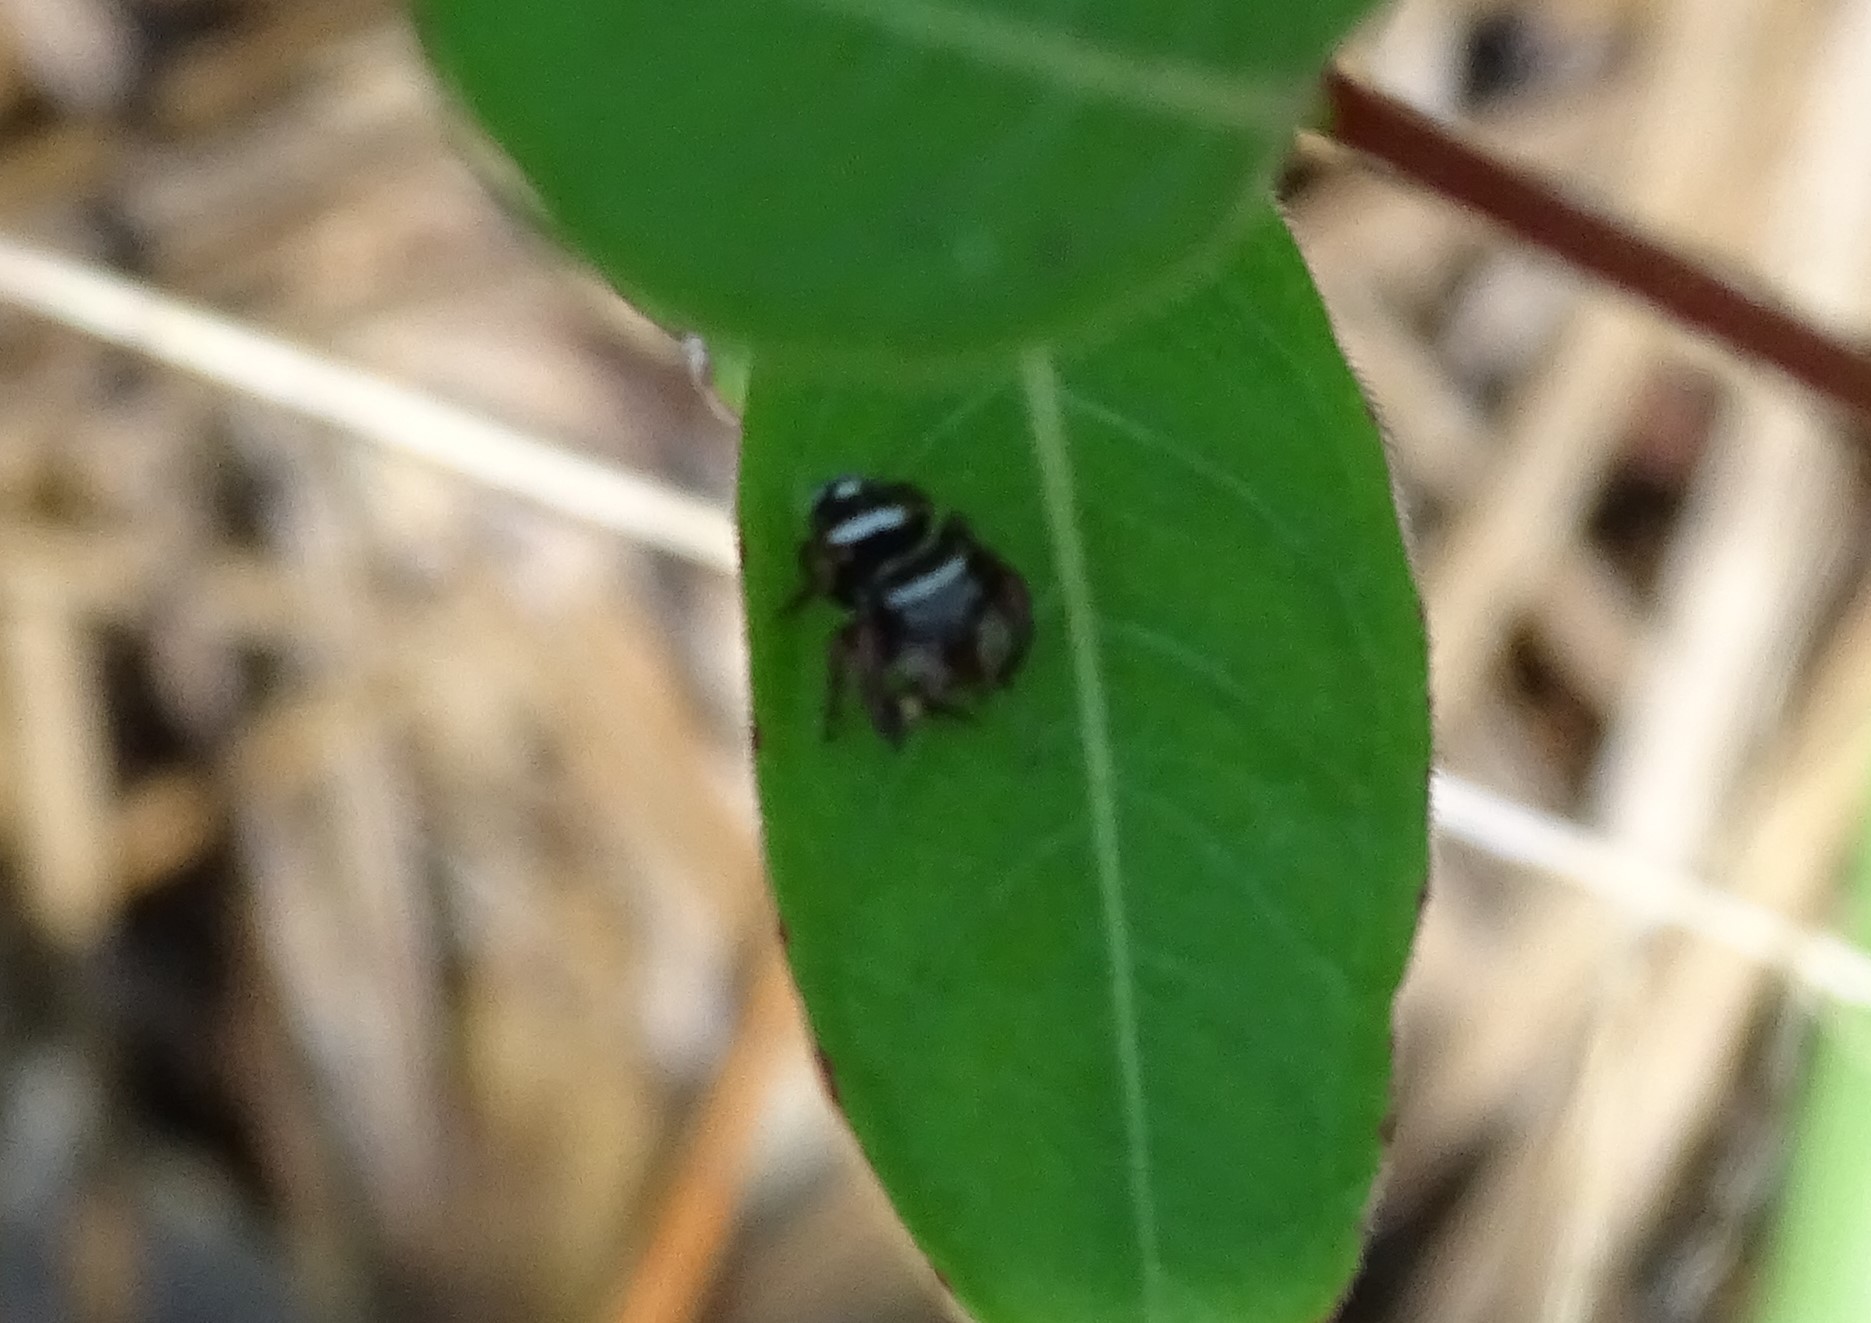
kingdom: Animalia
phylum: Arthropoda
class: Arachnida
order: Araneae
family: Salticidae
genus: Phidippus
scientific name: Phidippus regius
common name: Regal jumper
